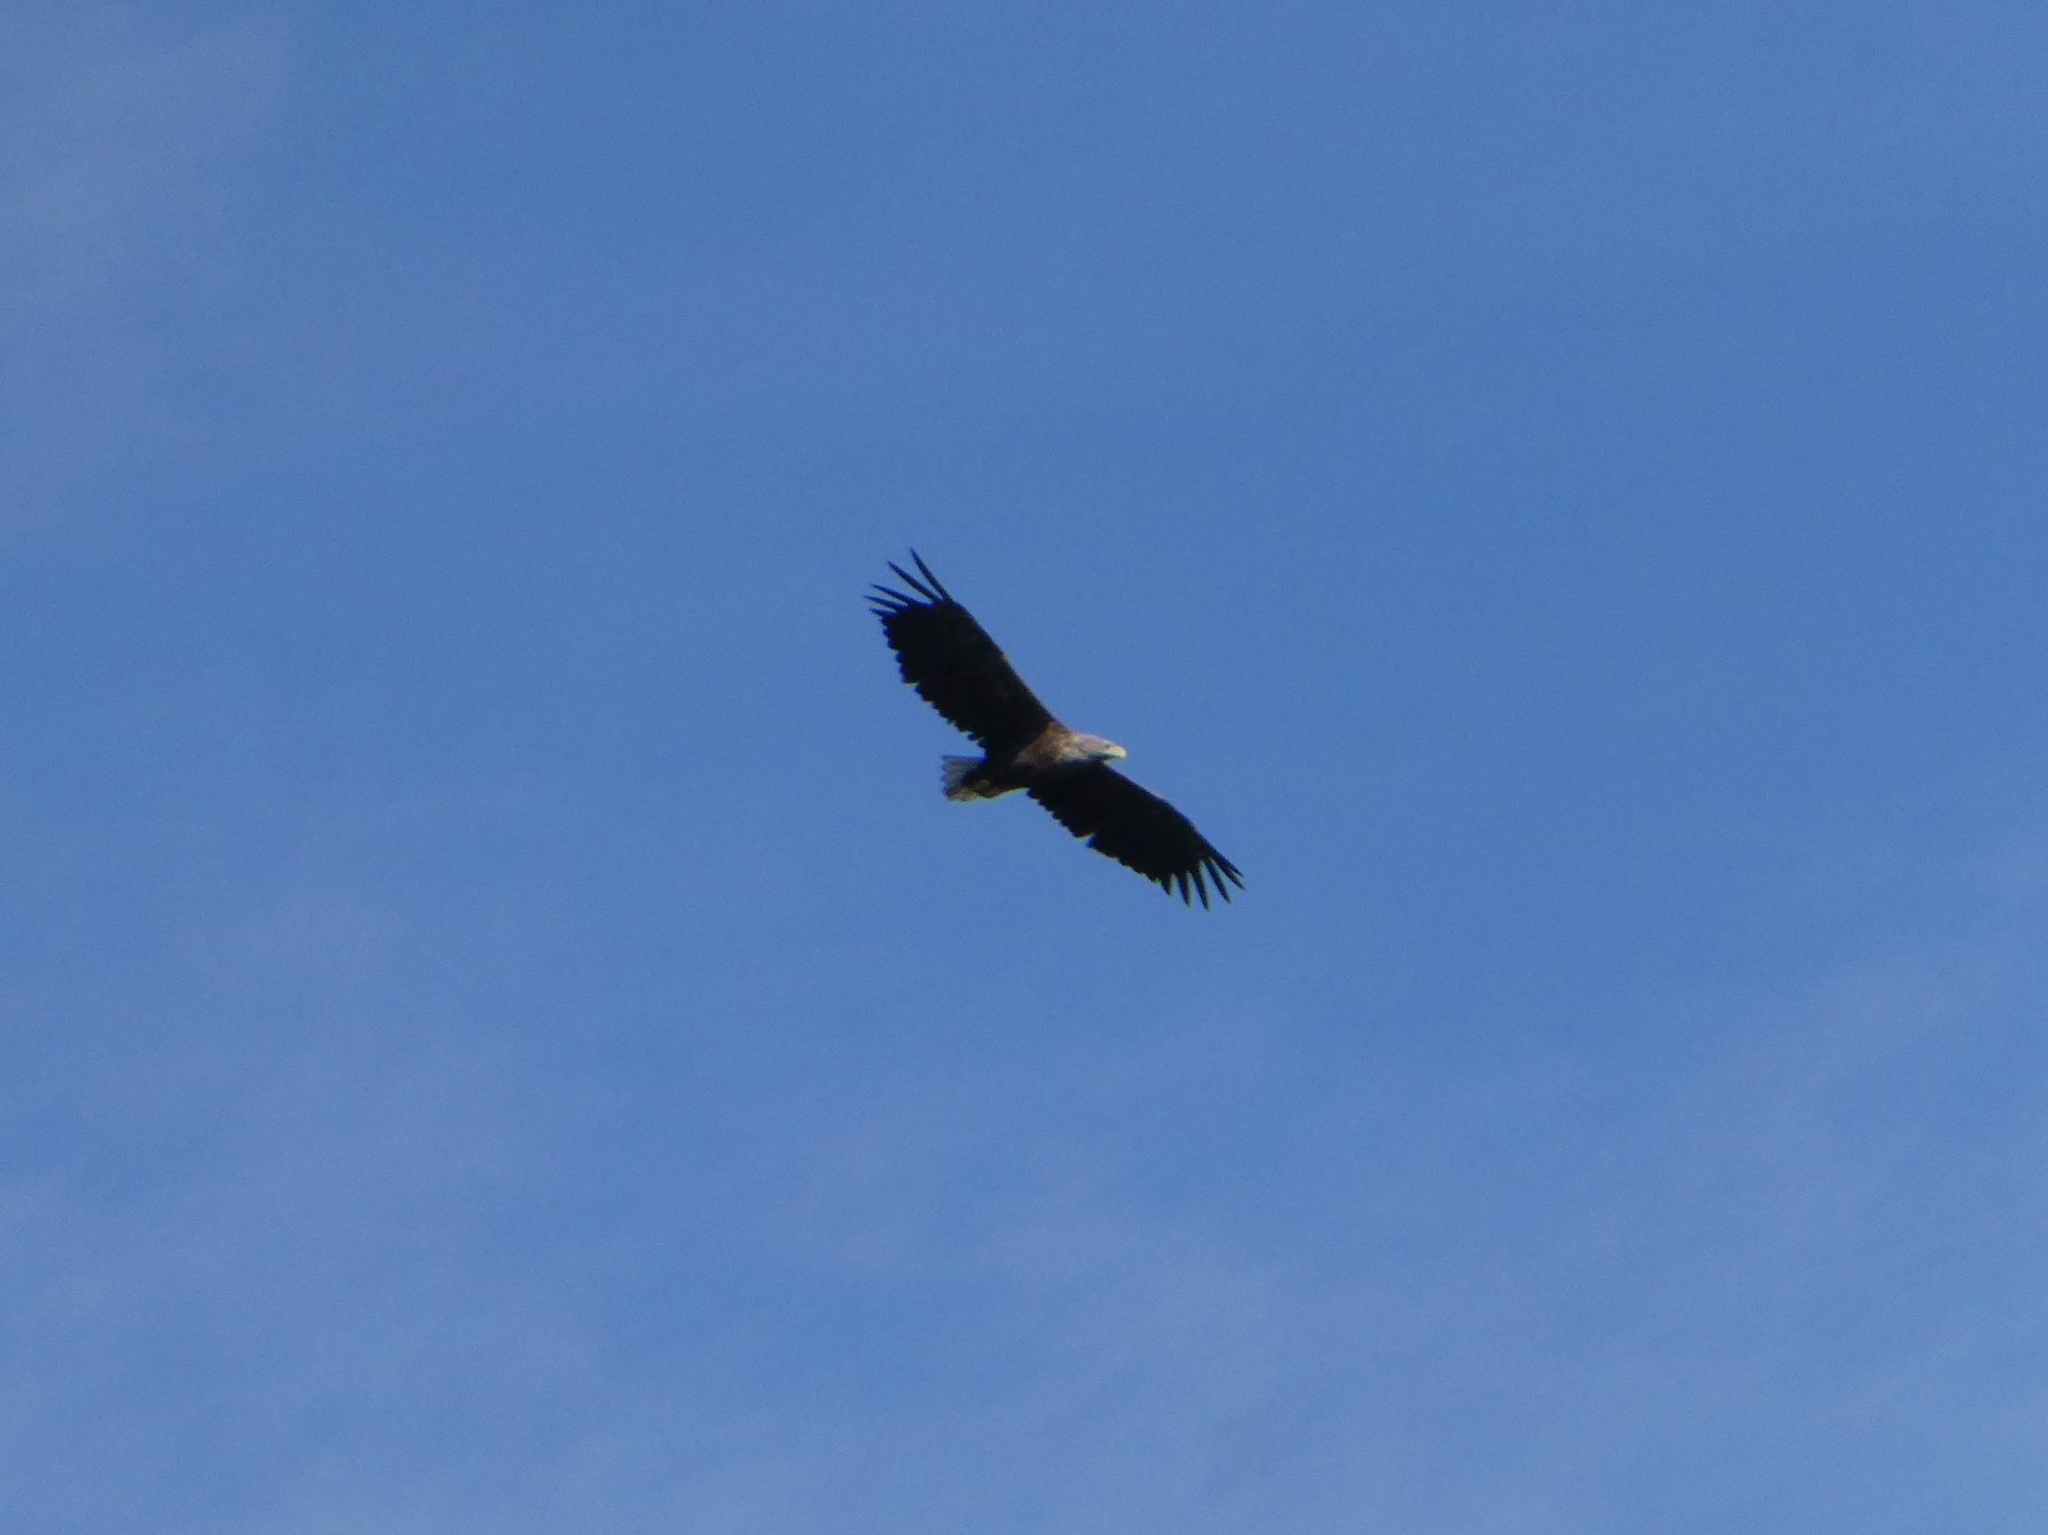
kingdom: Animalia
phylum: Chordata
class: Aves
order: Accipitriformes
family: Accipitridae
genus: Haliaeetus
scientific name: Haliaeetus albicilla
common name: White-tailed eagle
